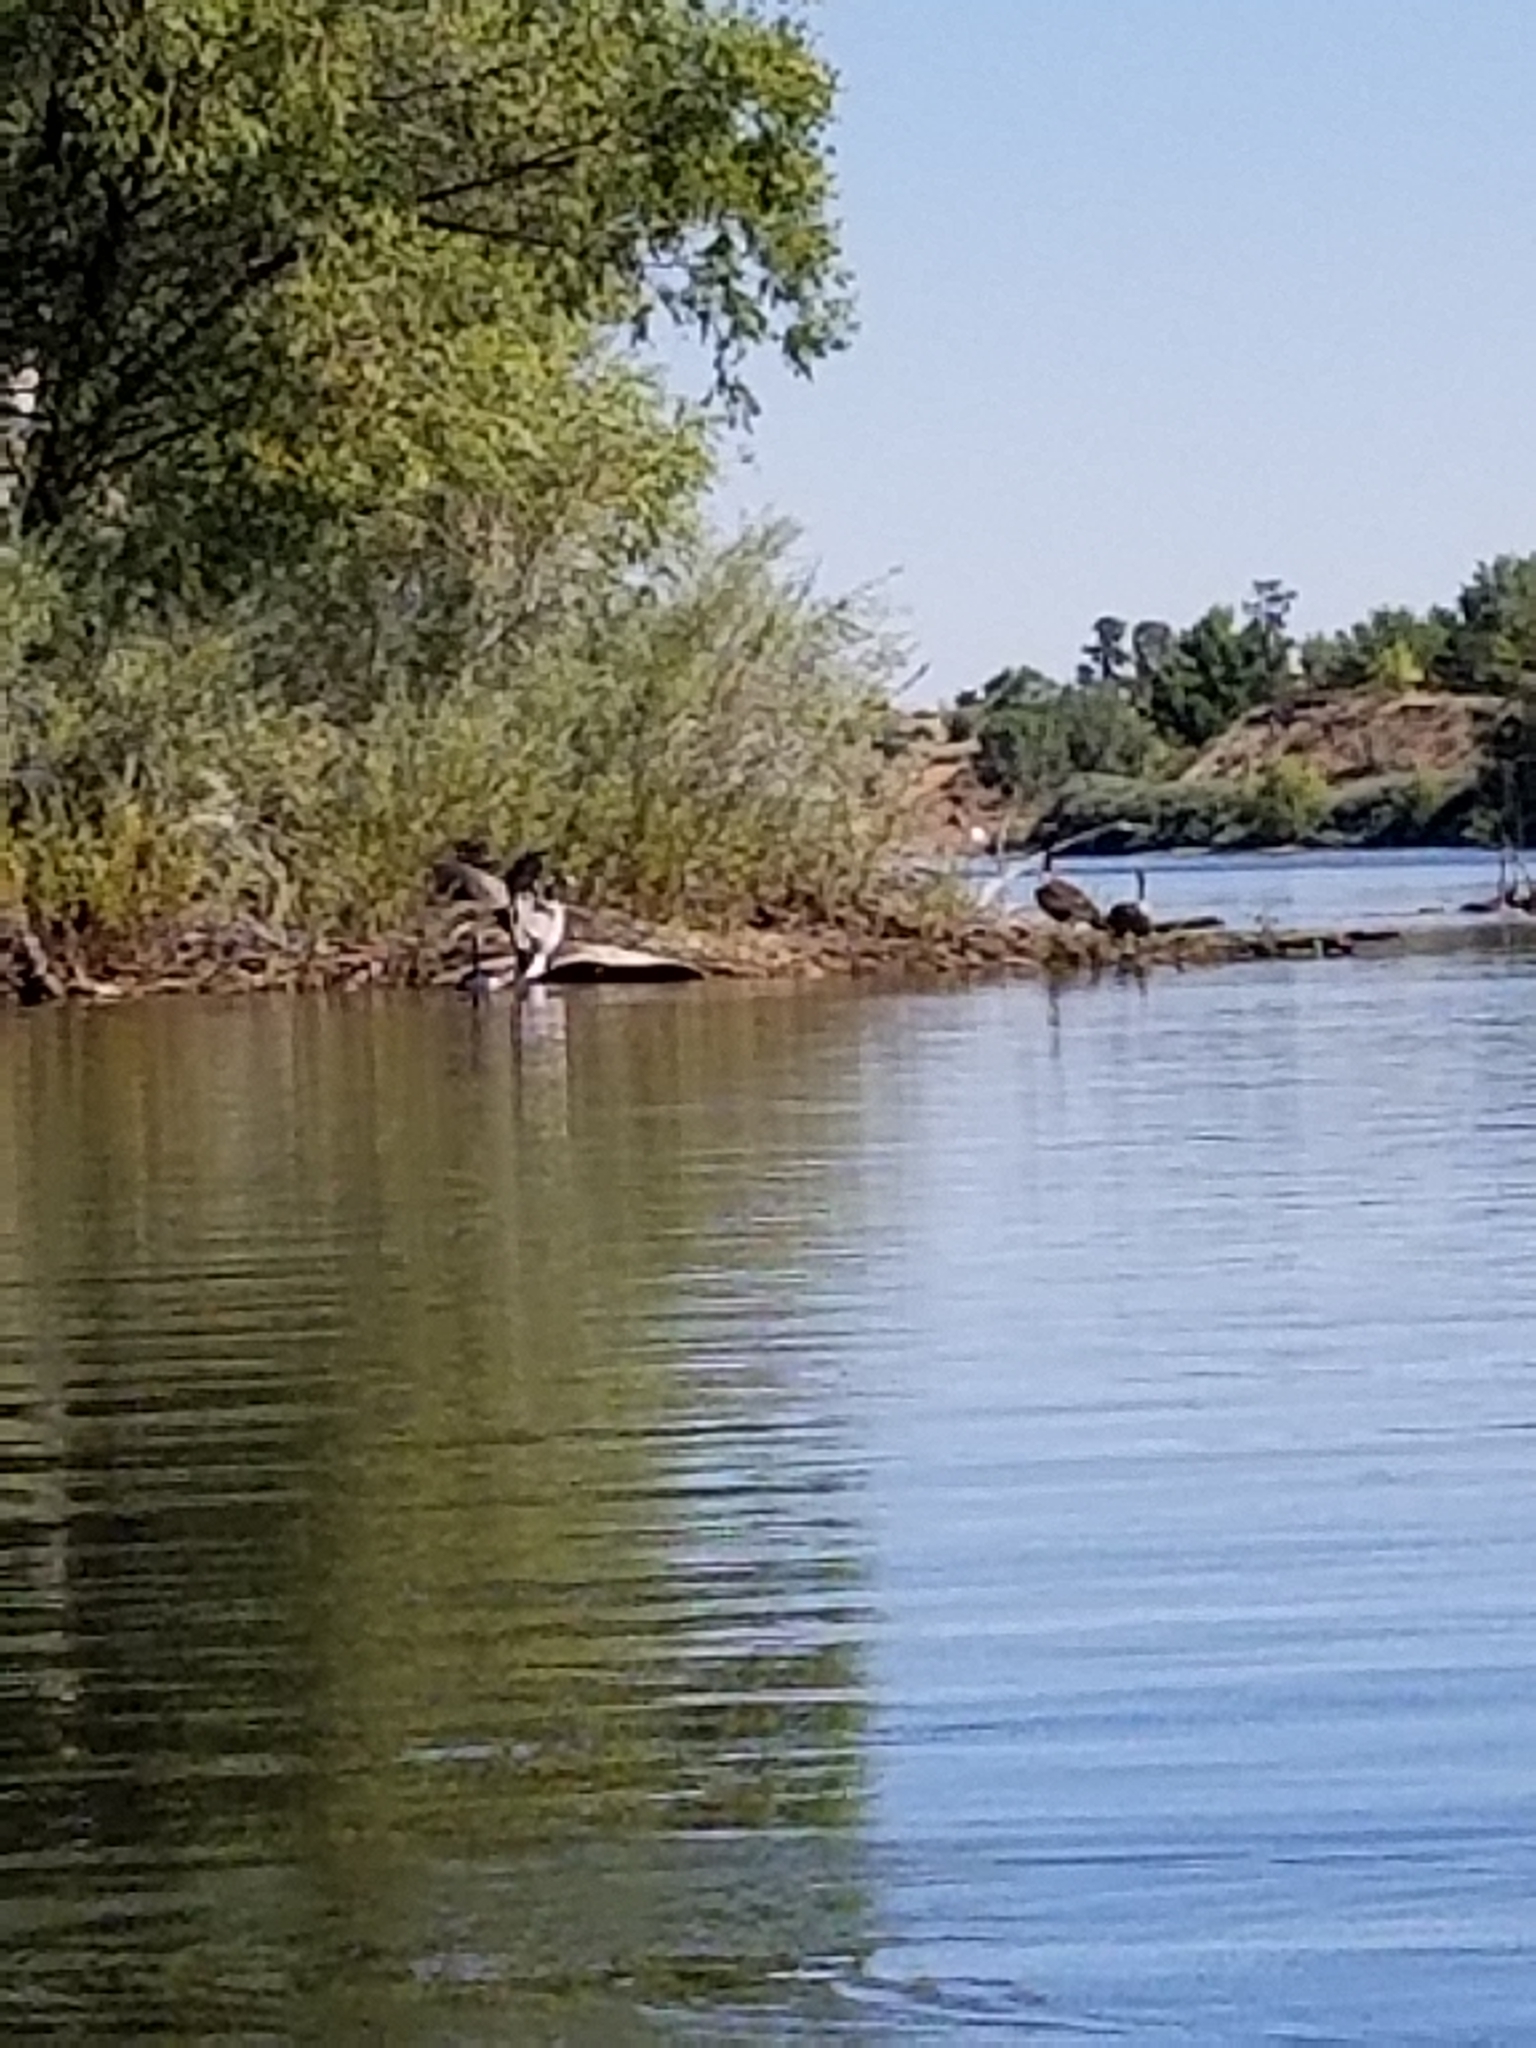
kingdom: Animalia
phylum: Chordata
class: Aves
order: Anseriformes
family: Anatidae
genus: Branta
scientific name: Branta canadensis
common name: Canada goose
